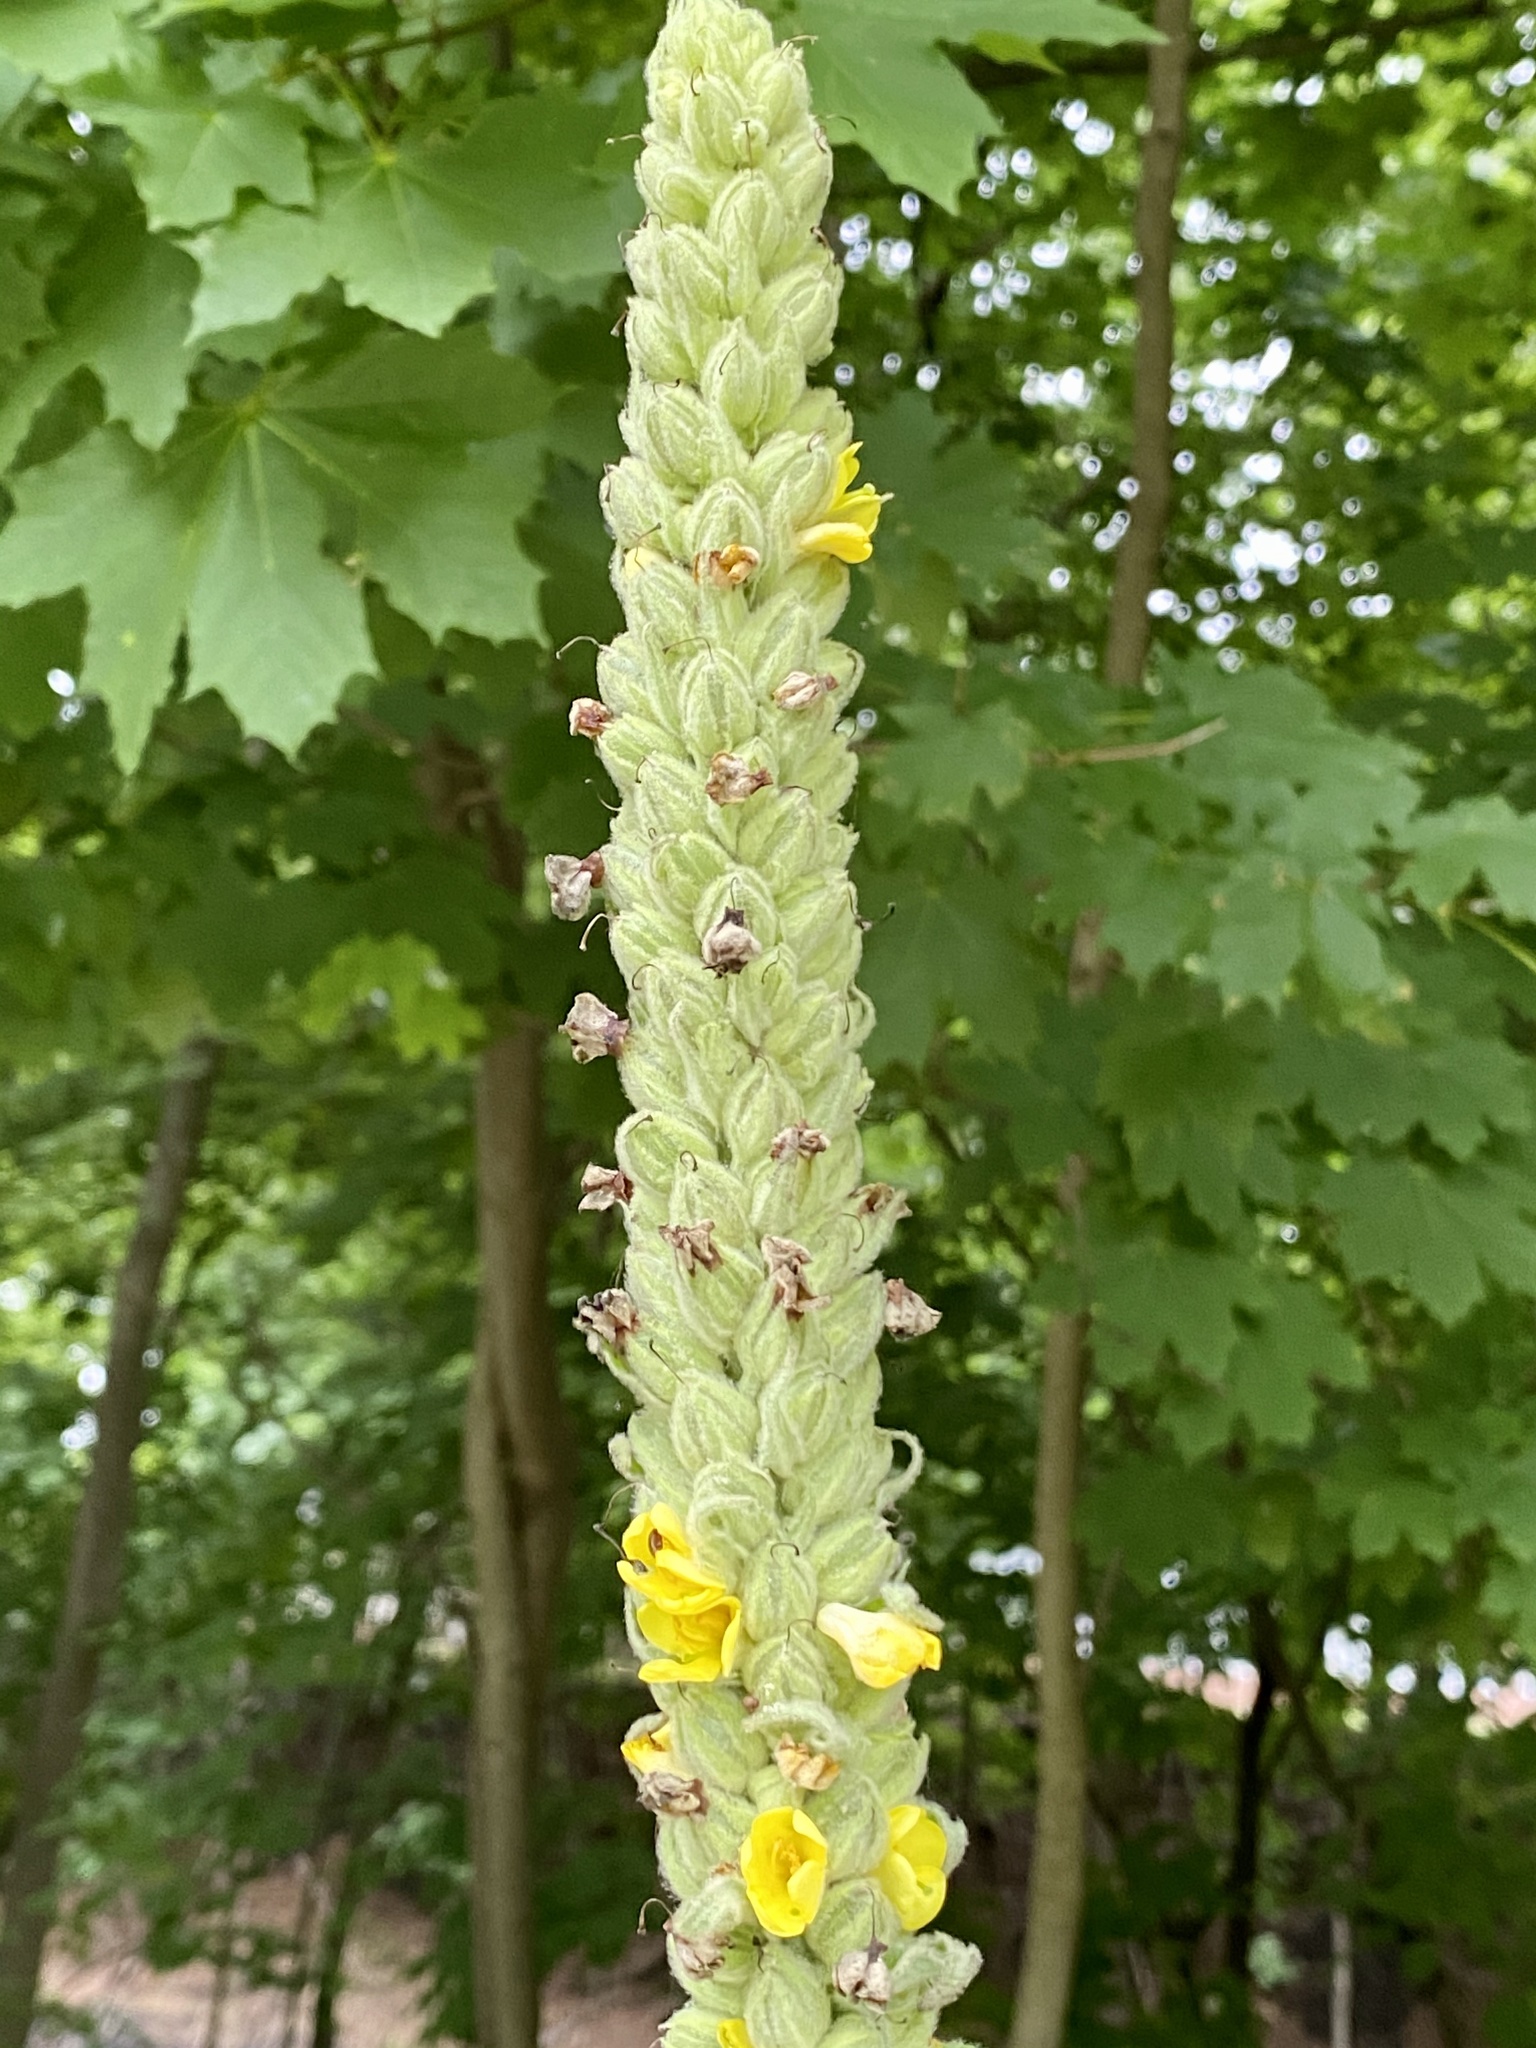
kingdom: Plantae
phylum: Tracheophyta
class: Magnoliopsida
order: Lamiales
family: Scrophulariaceae
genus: Verbascum
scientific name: Verbascum thapsus
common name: Common mullein
